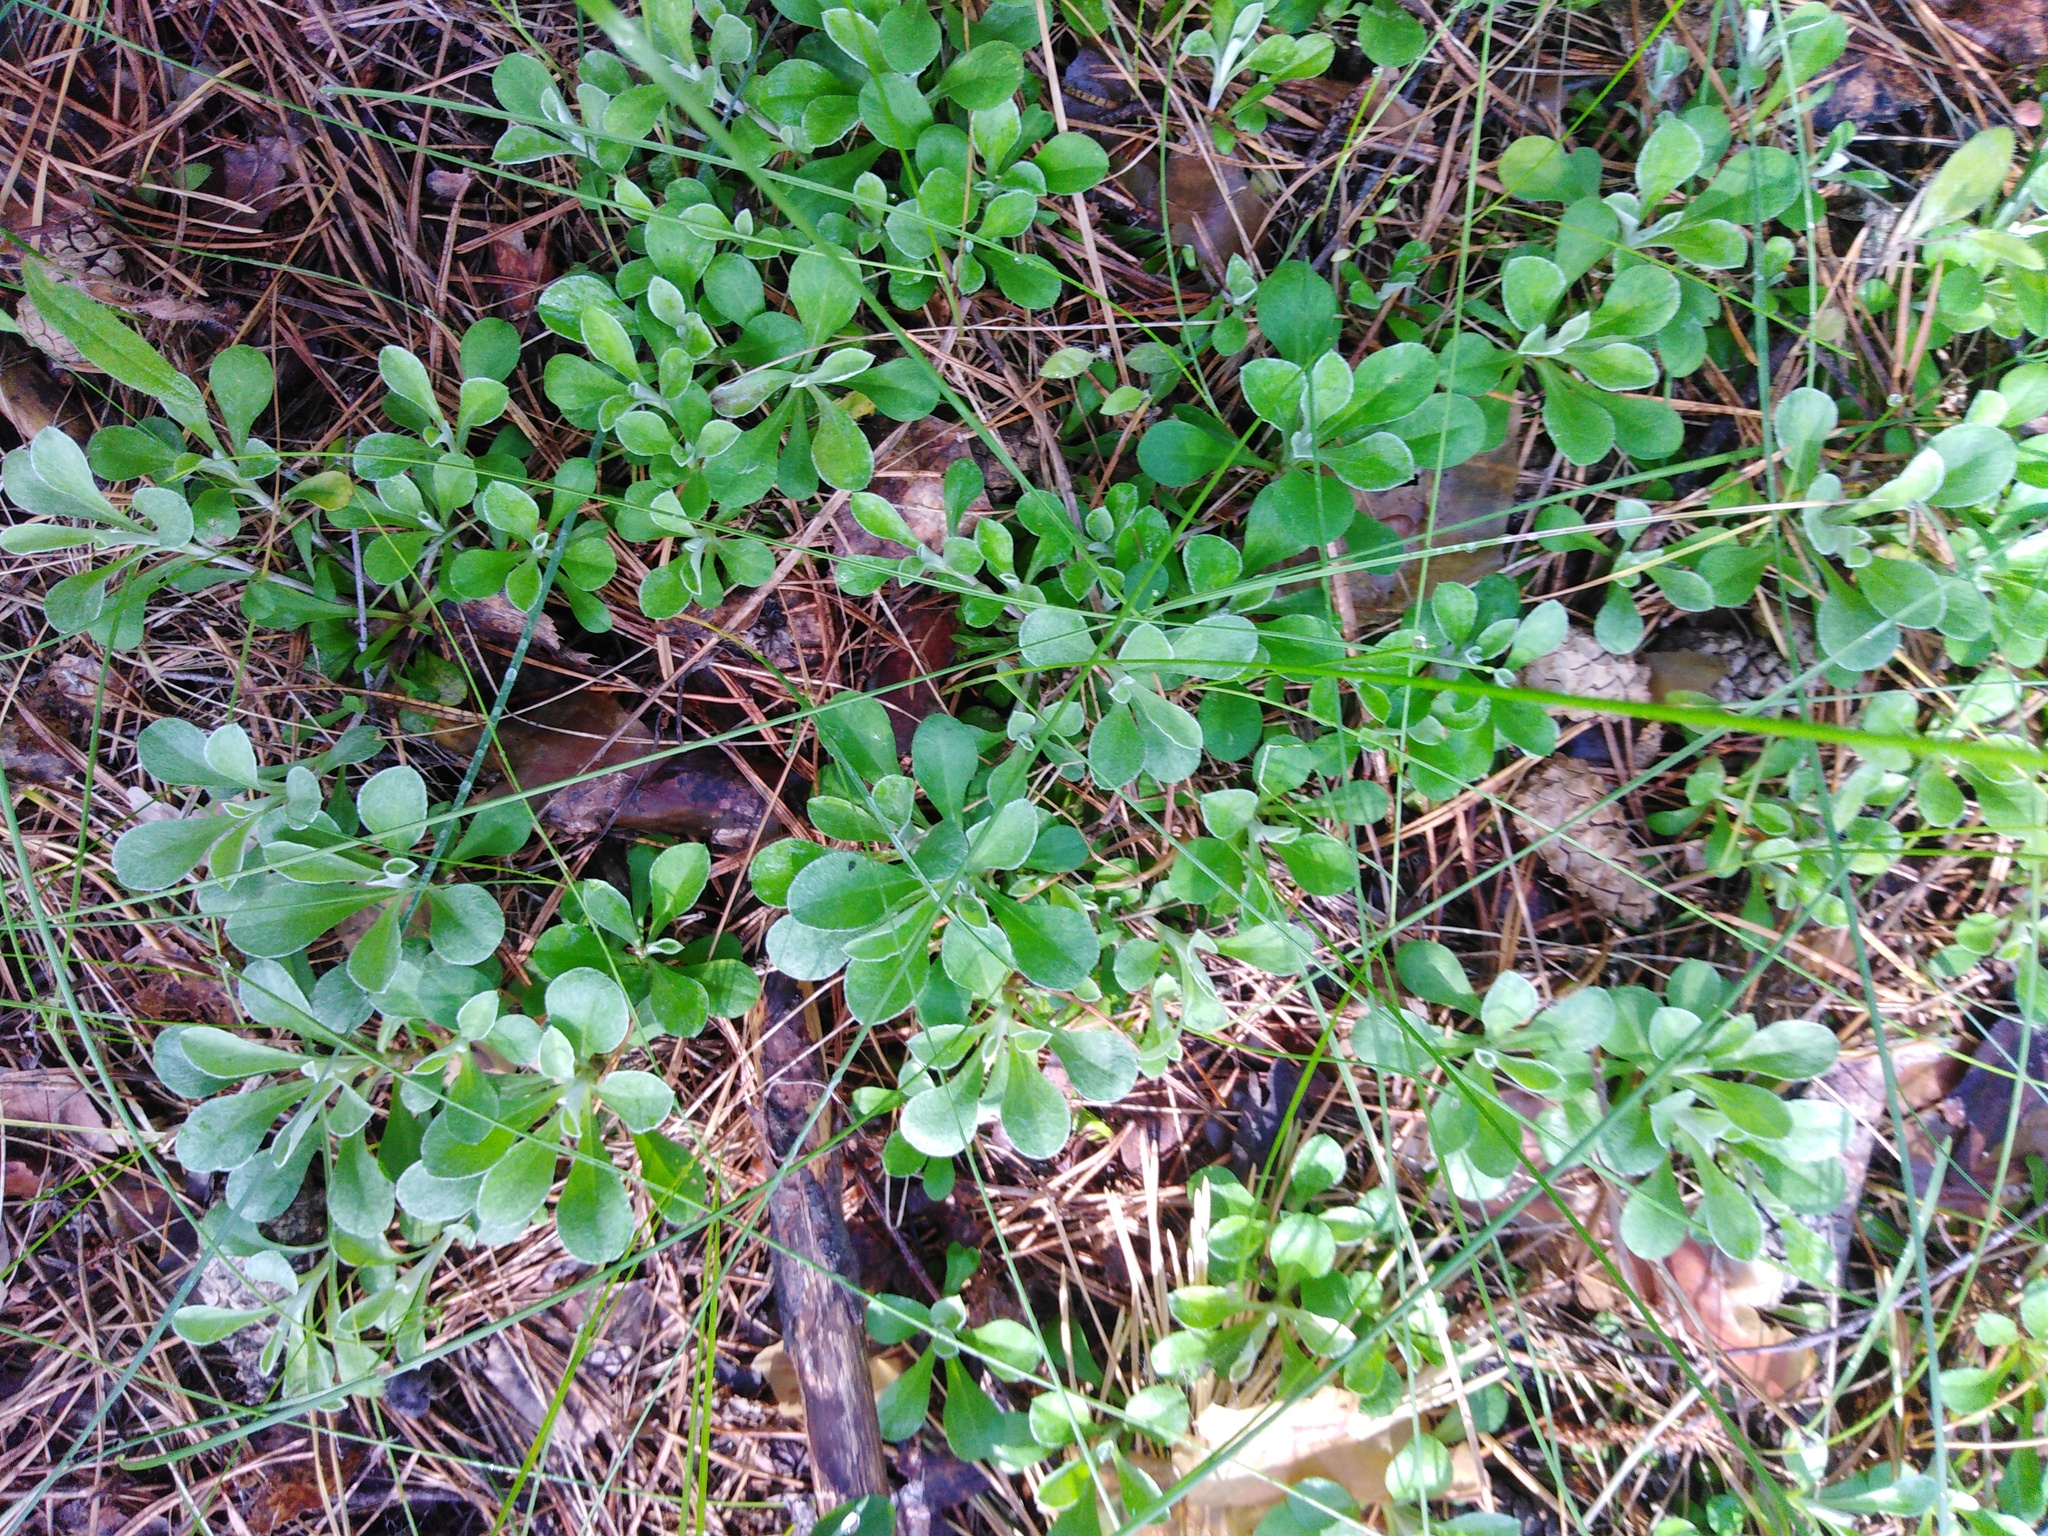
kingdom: Plantae
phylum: Tracheophyta
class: Magnoliopsida
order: Asterales
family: Asteraceae
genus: Antennaria
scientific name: Antennaria dioica
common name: Mountain everlasting
